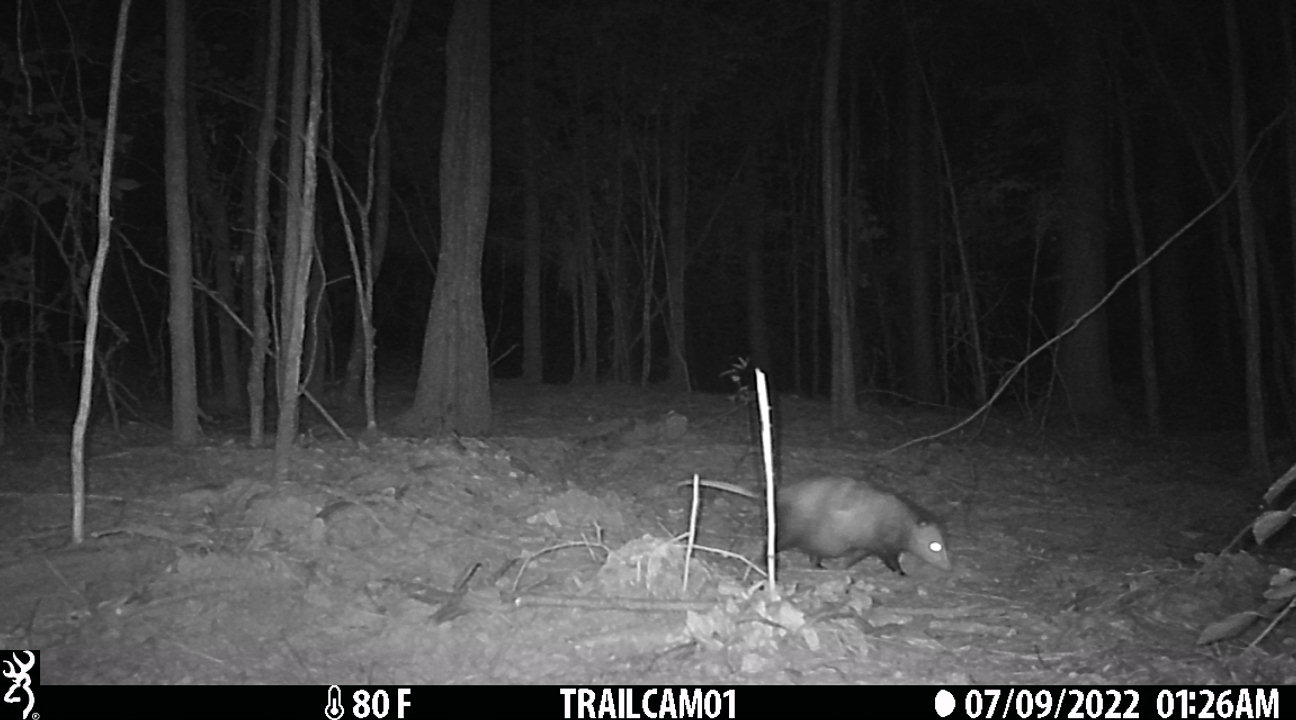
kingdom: Animalia
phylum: Chordata
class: Mammalia
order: Didelphimorphia
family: Didelphidae
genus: Didelphis
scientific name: Didelphis virginiana
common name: Virginia opossum
